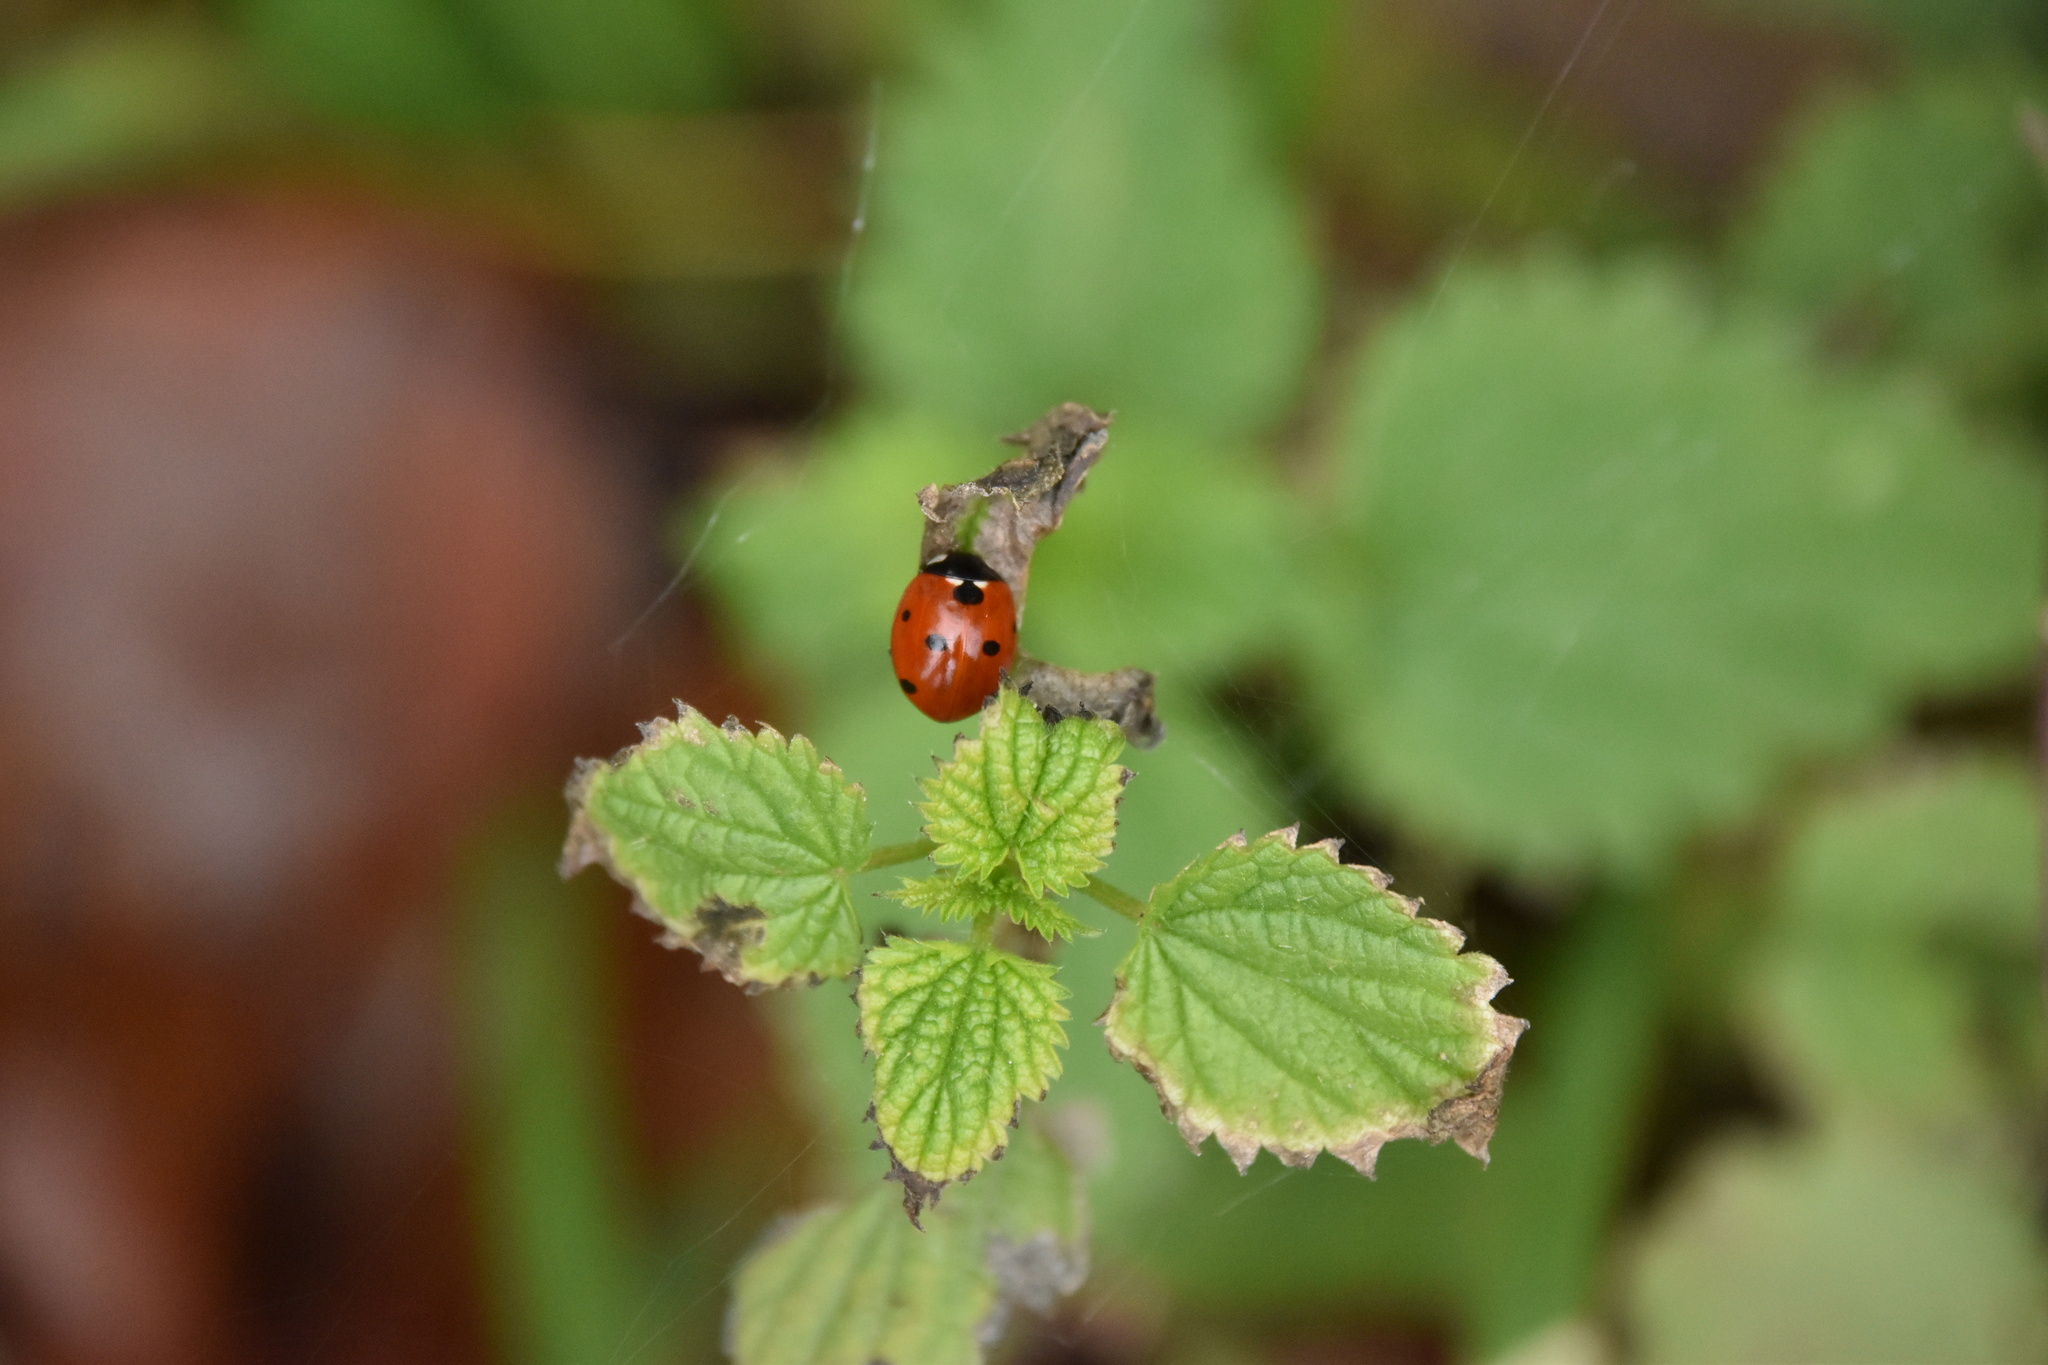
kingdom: Animalia
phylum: Arthropoda
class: Insecta
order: Coleoptera
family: Coccinellidae
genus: Coccinella
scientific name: Coccinella septempunctata
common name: Sevenspotted lady beetle
